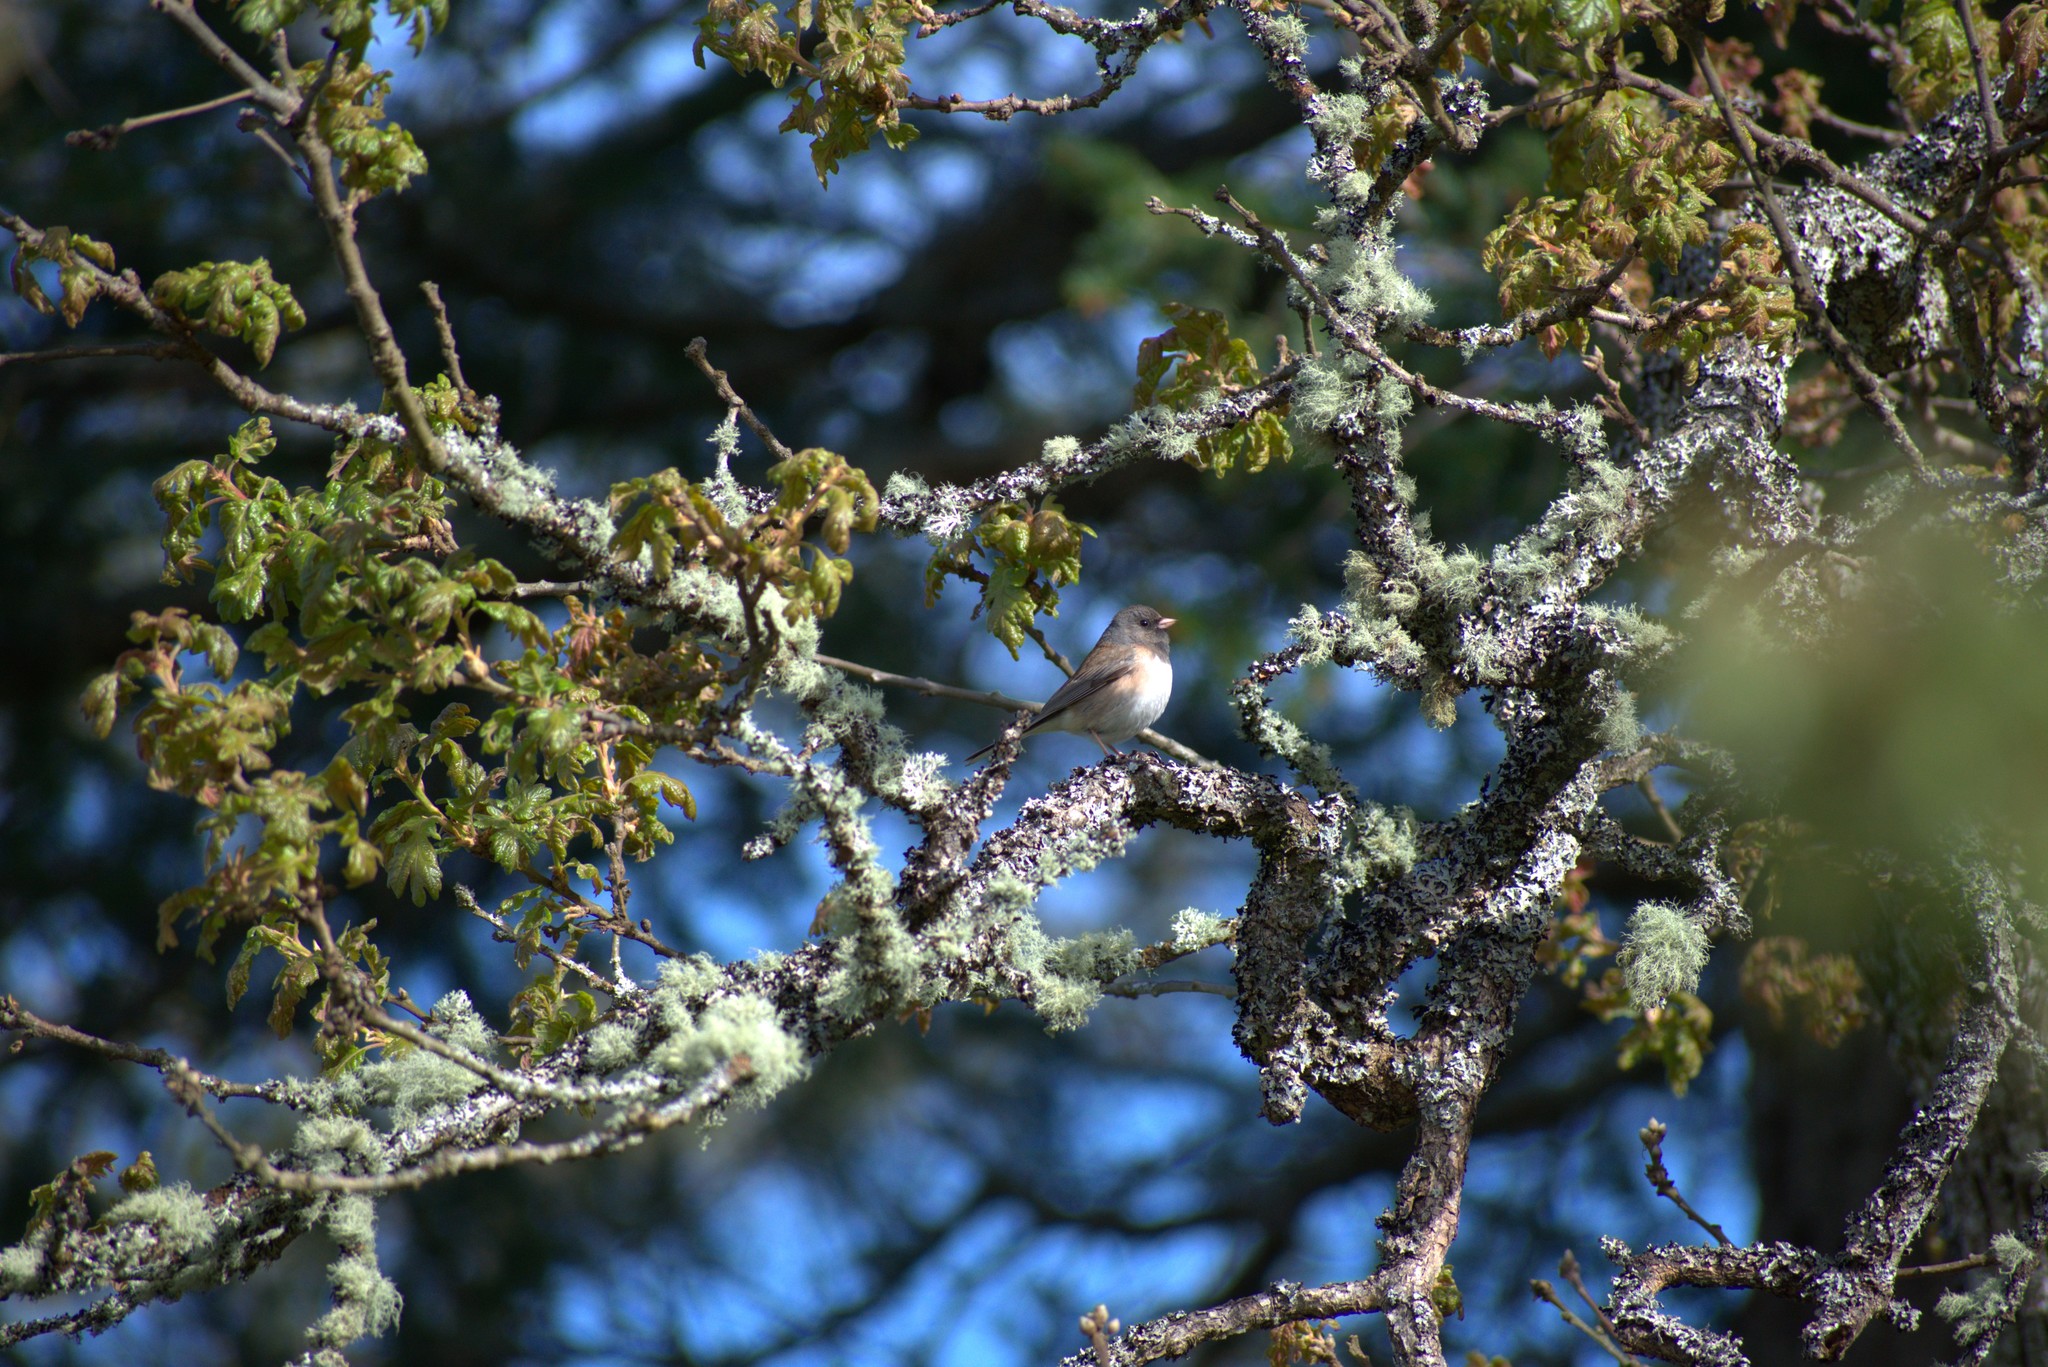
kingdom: Animalia
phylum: Chordata
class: Aves
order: Passeriformes
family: Passerellidae
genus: Junco
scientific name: Junco hyemalis
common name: Dark-eyed junco
